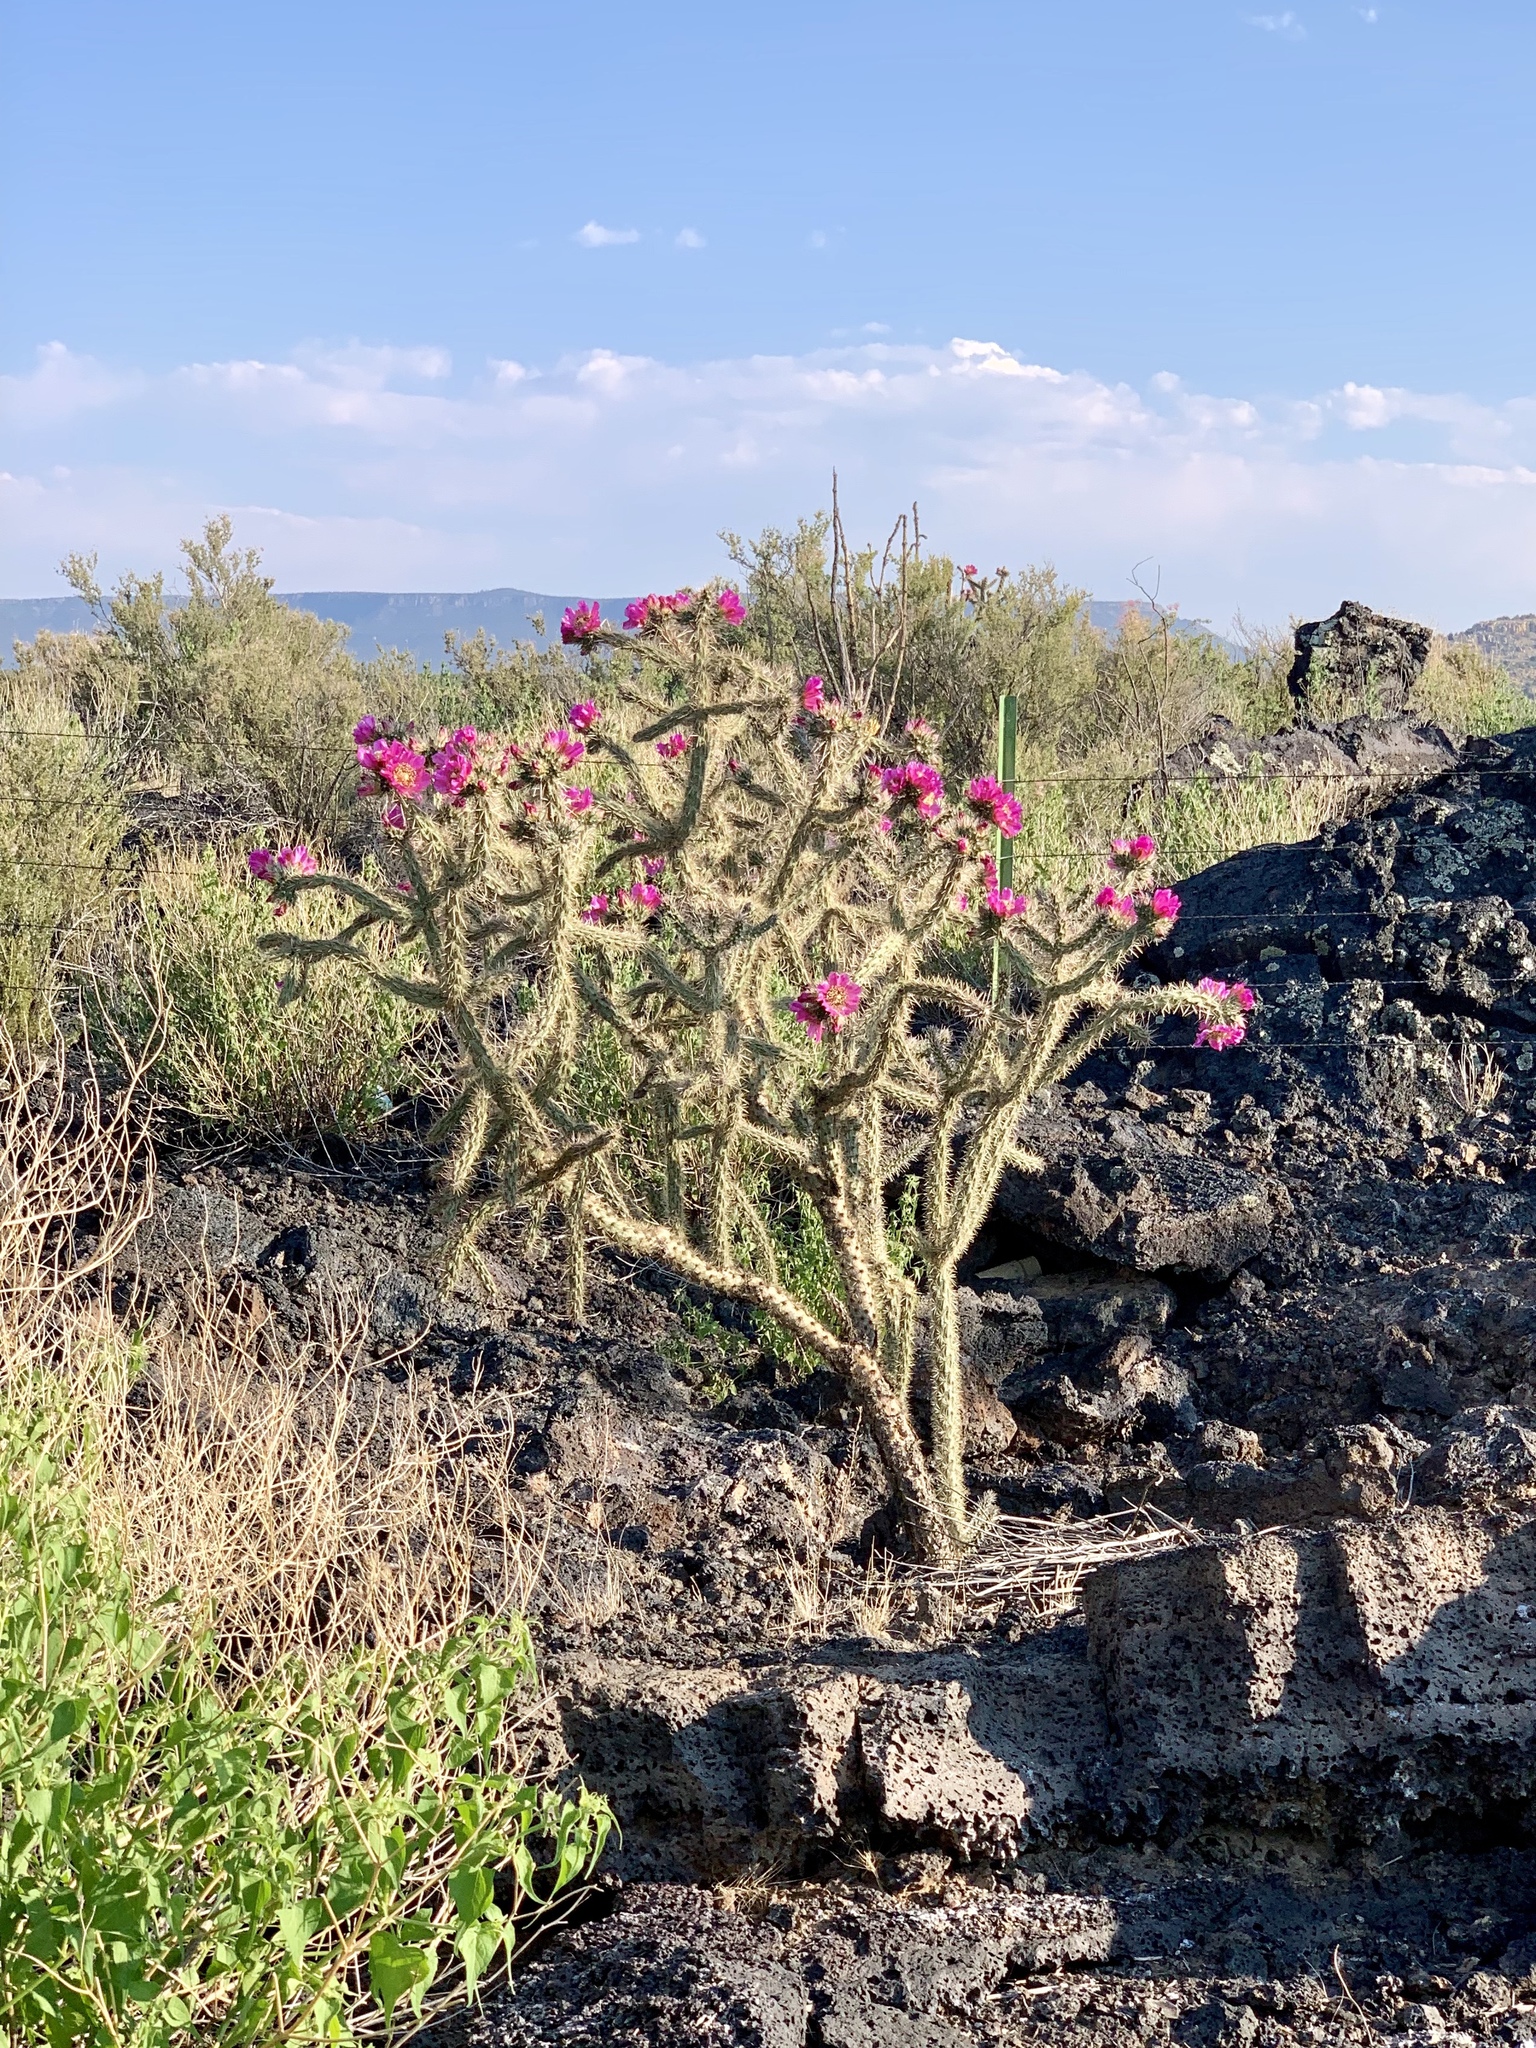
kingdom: Plantae
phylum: Tracheophyta
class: Magnoliopsida
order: Caryophyllales
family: Cactaceae
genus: Cylindropuntia
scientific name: Cylindropuntia imbricata
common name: Candelabrum cactus
